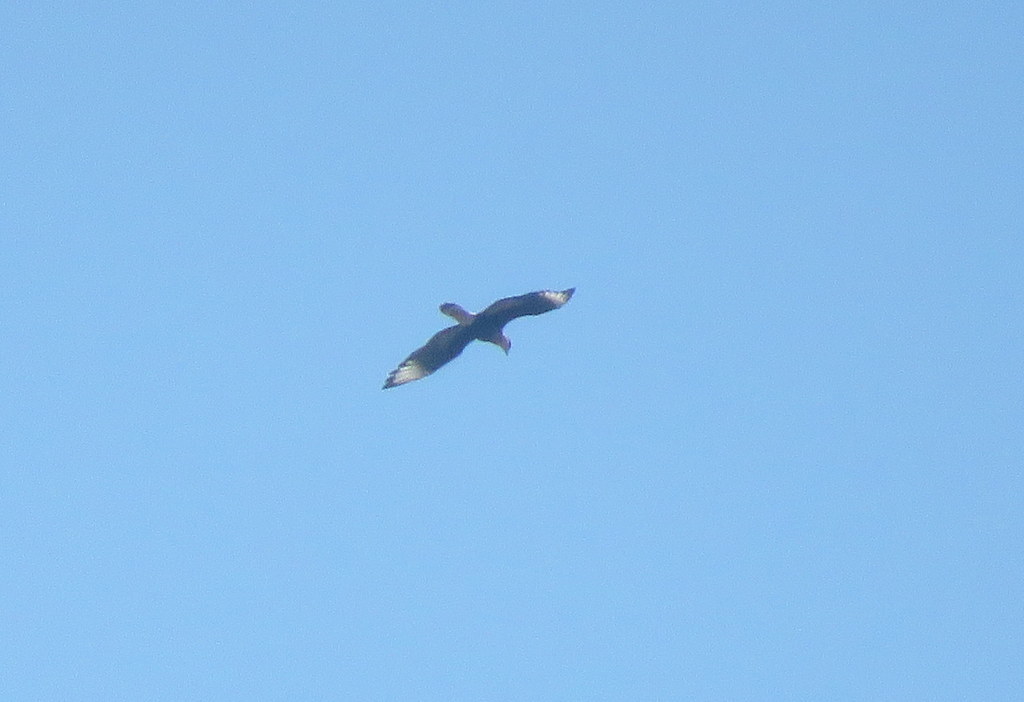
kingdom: Animalia
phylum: Chordata
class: Aves
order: Falconiformes
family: Falconidae
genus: Caracara
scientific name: Caracara plancus
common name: Southern caracara
